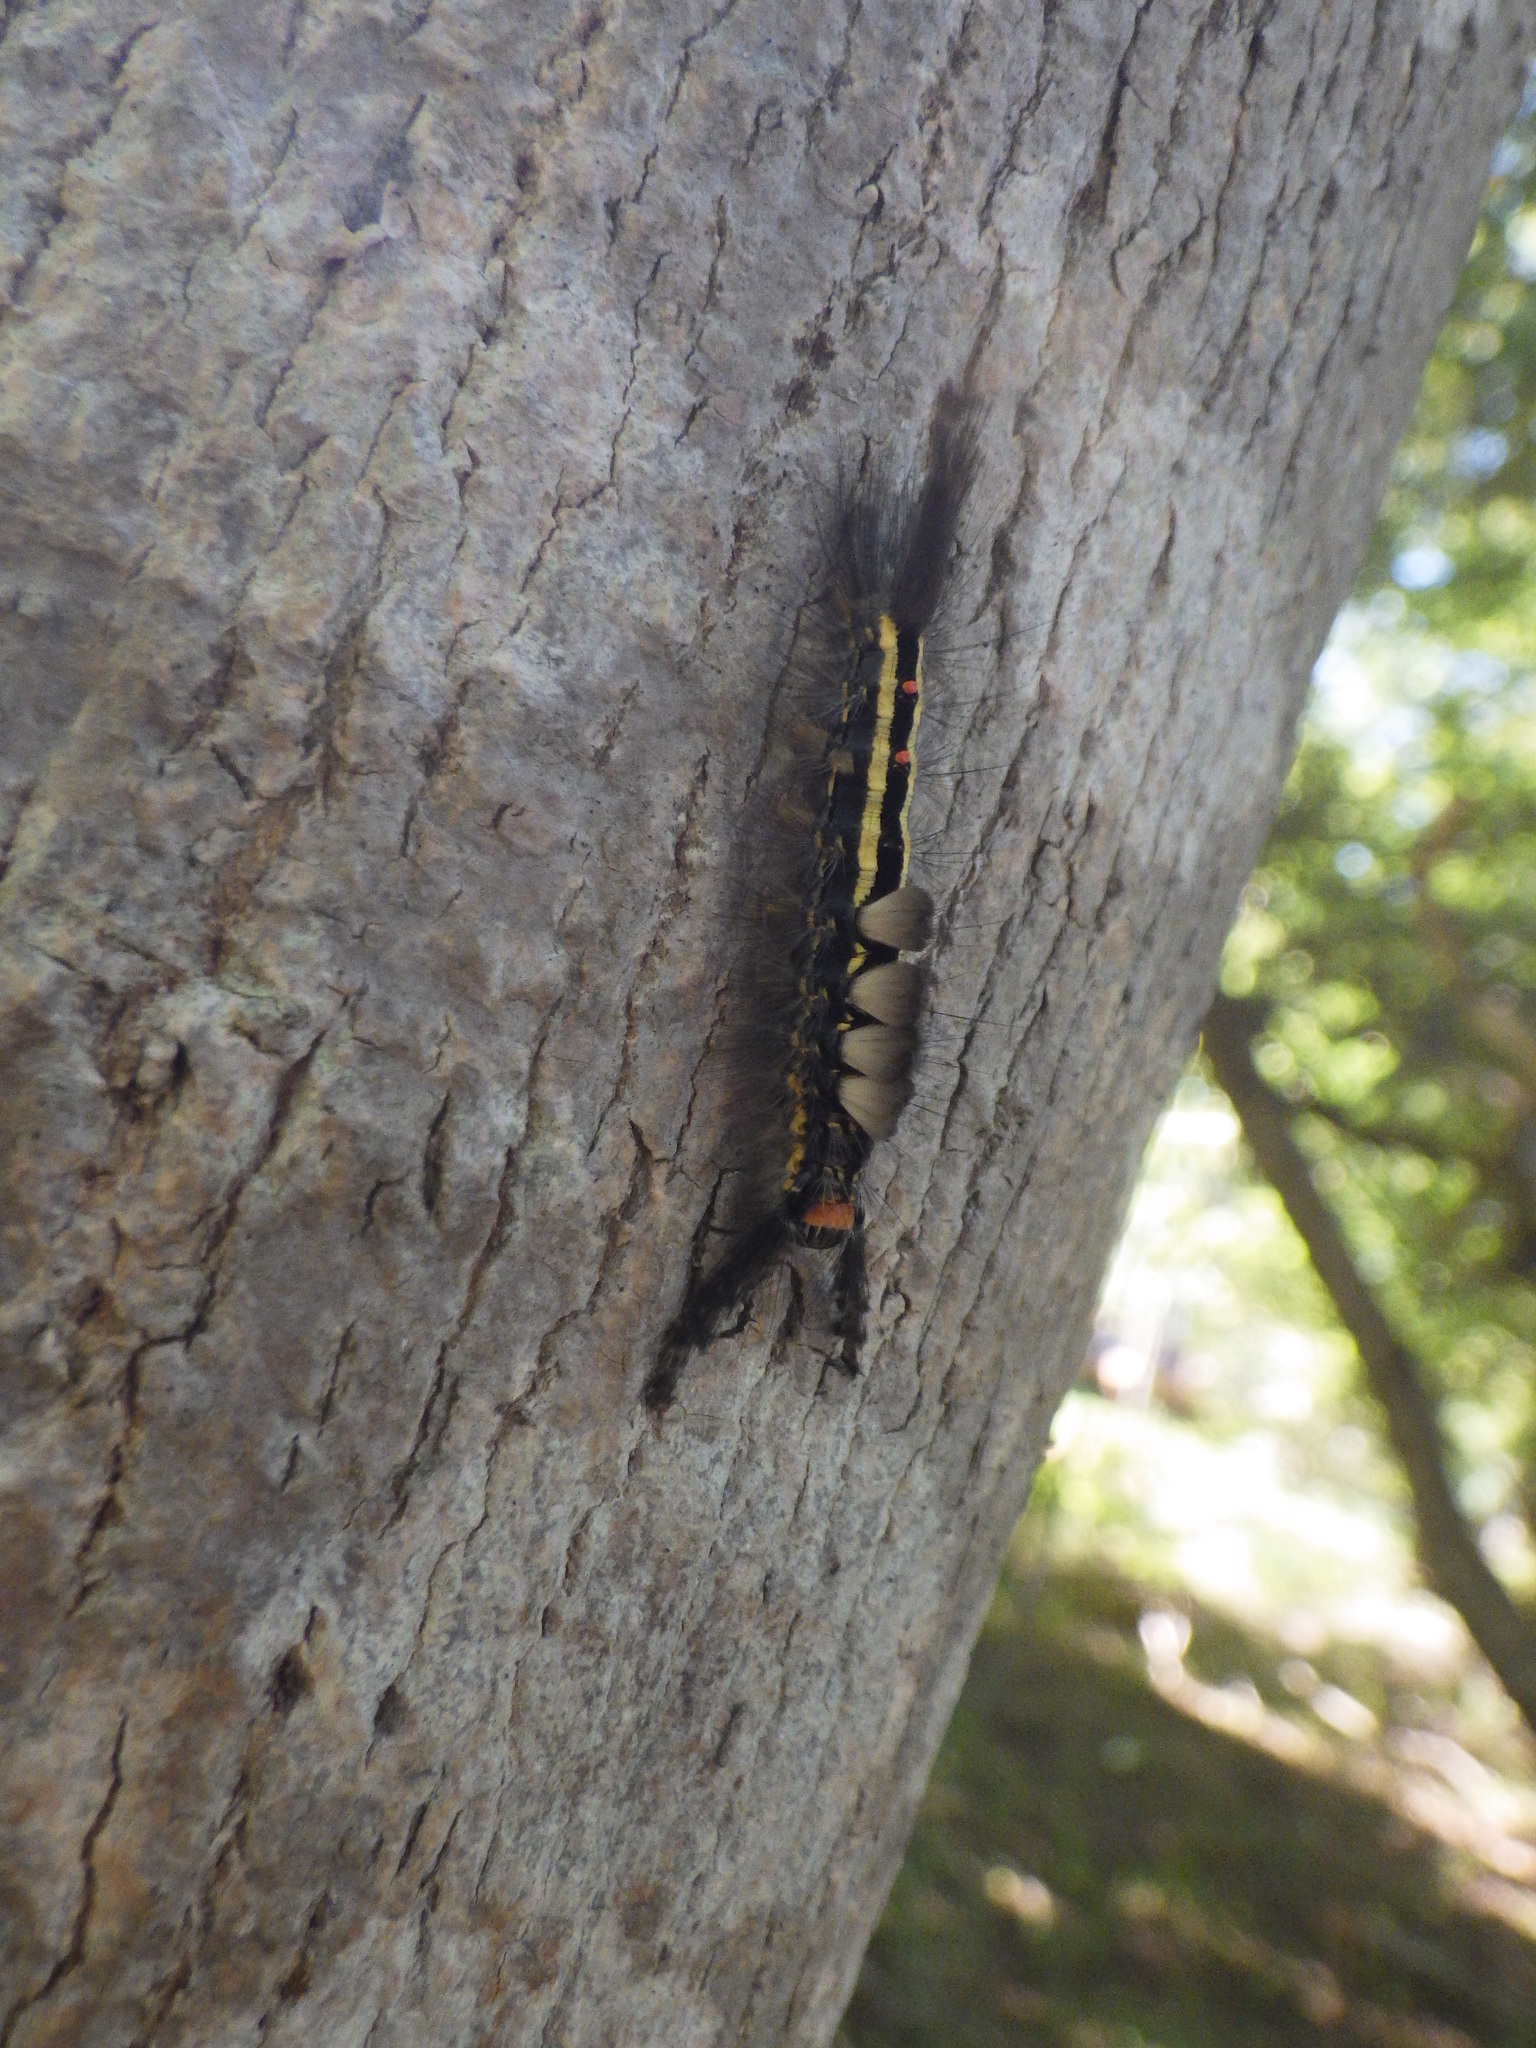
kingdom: Animalia
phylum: Arthropoda
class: Insecta
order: Lepidoptera
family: Erebidae
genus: Orgyia
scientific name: Orgyia leucostigma
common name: White-marked tussock moth
